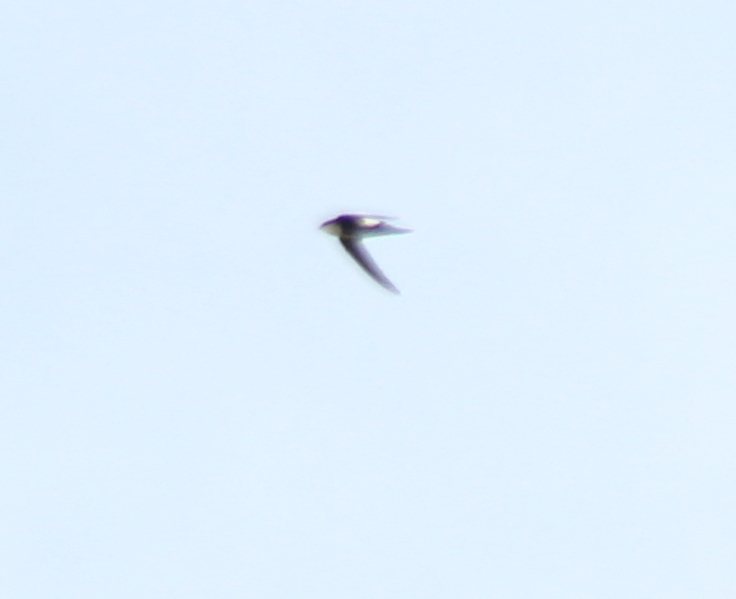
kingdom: Animalia
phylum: Chordata
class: Aves
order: Apodiformes
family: Apodidae
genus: Aeronautes
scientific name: Aeronautes saxatalis
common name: White-throated swift
